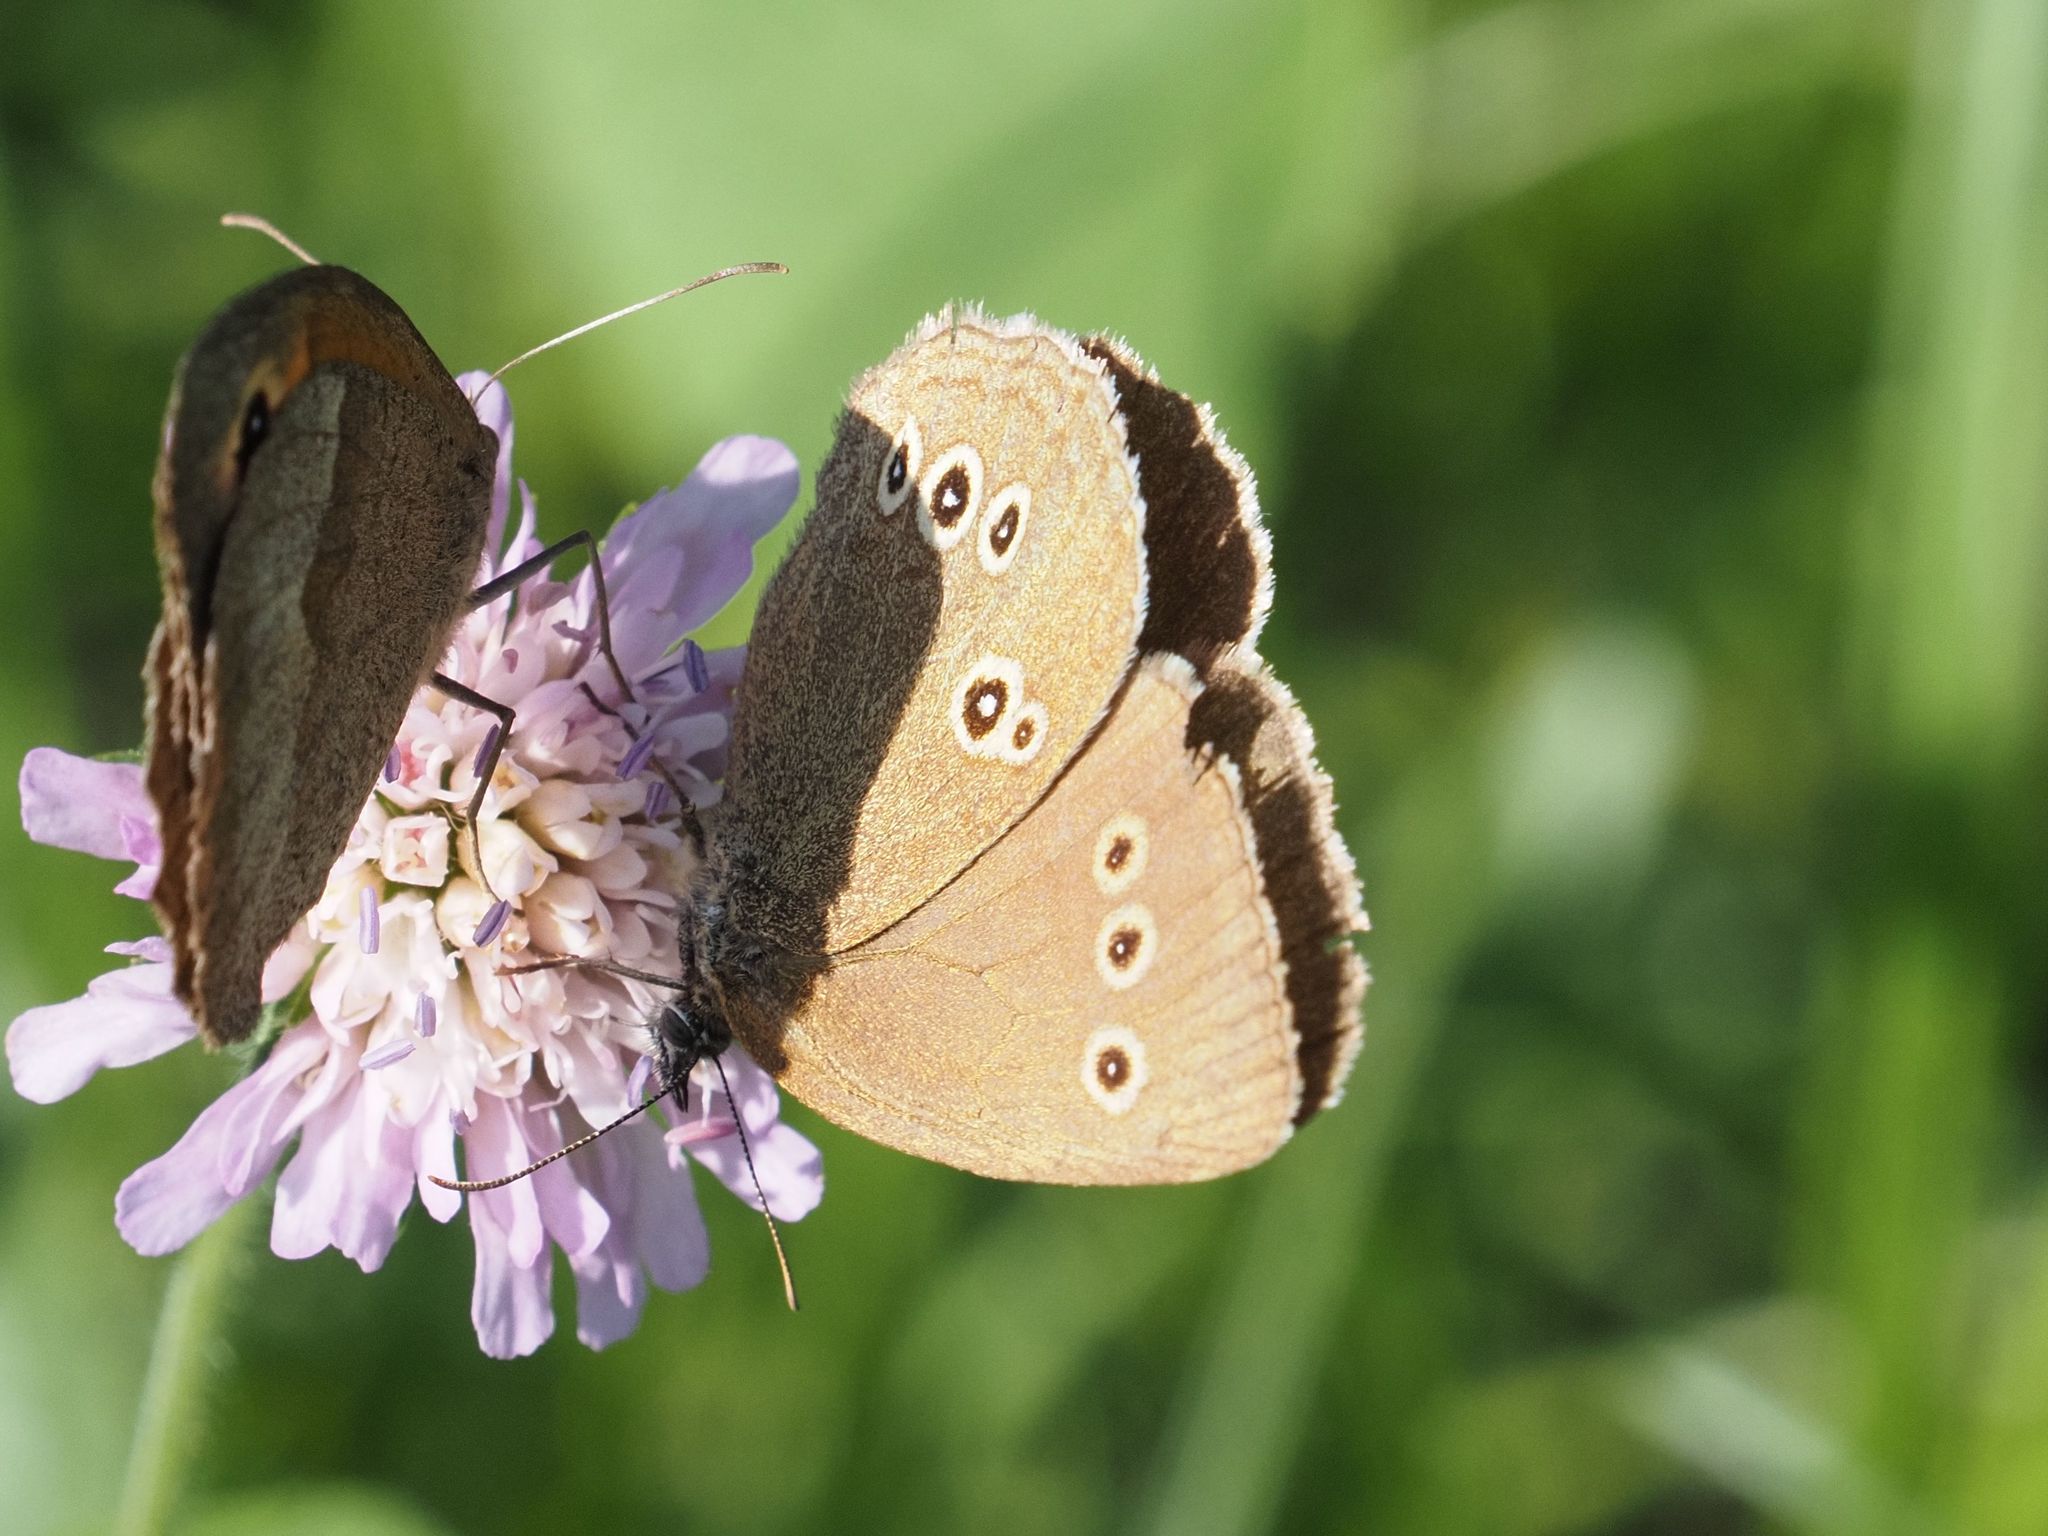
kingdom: Animalia
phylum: Arthropoda
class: Insecta
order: Lepidoptera
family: Nymphalidae
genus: Aphantopus
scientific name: Aphantopus hyperantus
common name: Ringlet
